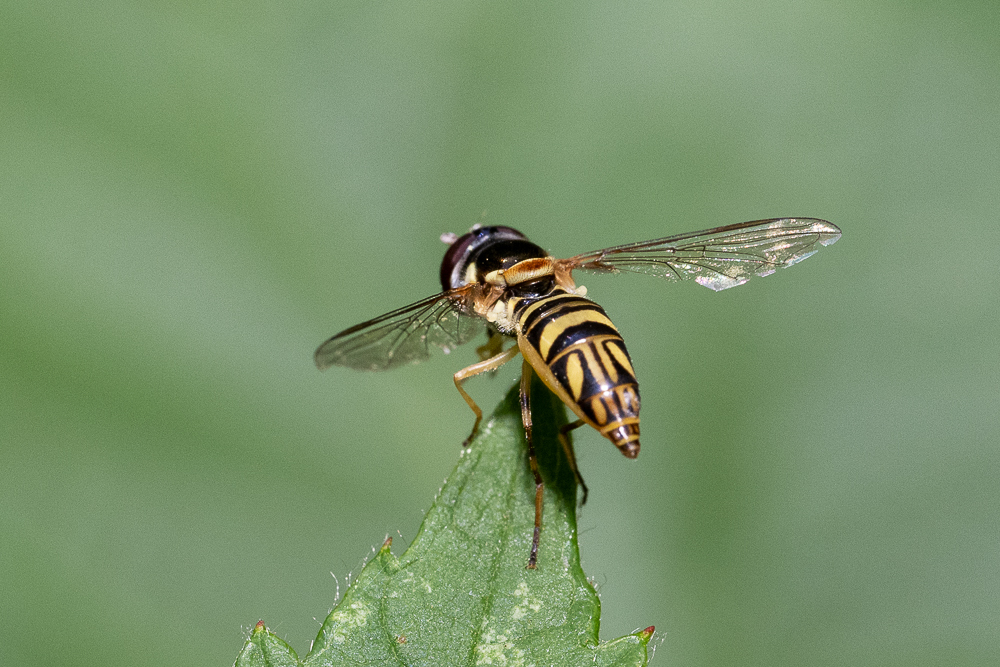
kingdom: Animalia
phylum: Arthropoda
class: Insecta
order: Diptera
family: Syrphidae
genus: Allograpta
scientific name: Allograpta obliqua
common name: Common oblique syrphid
